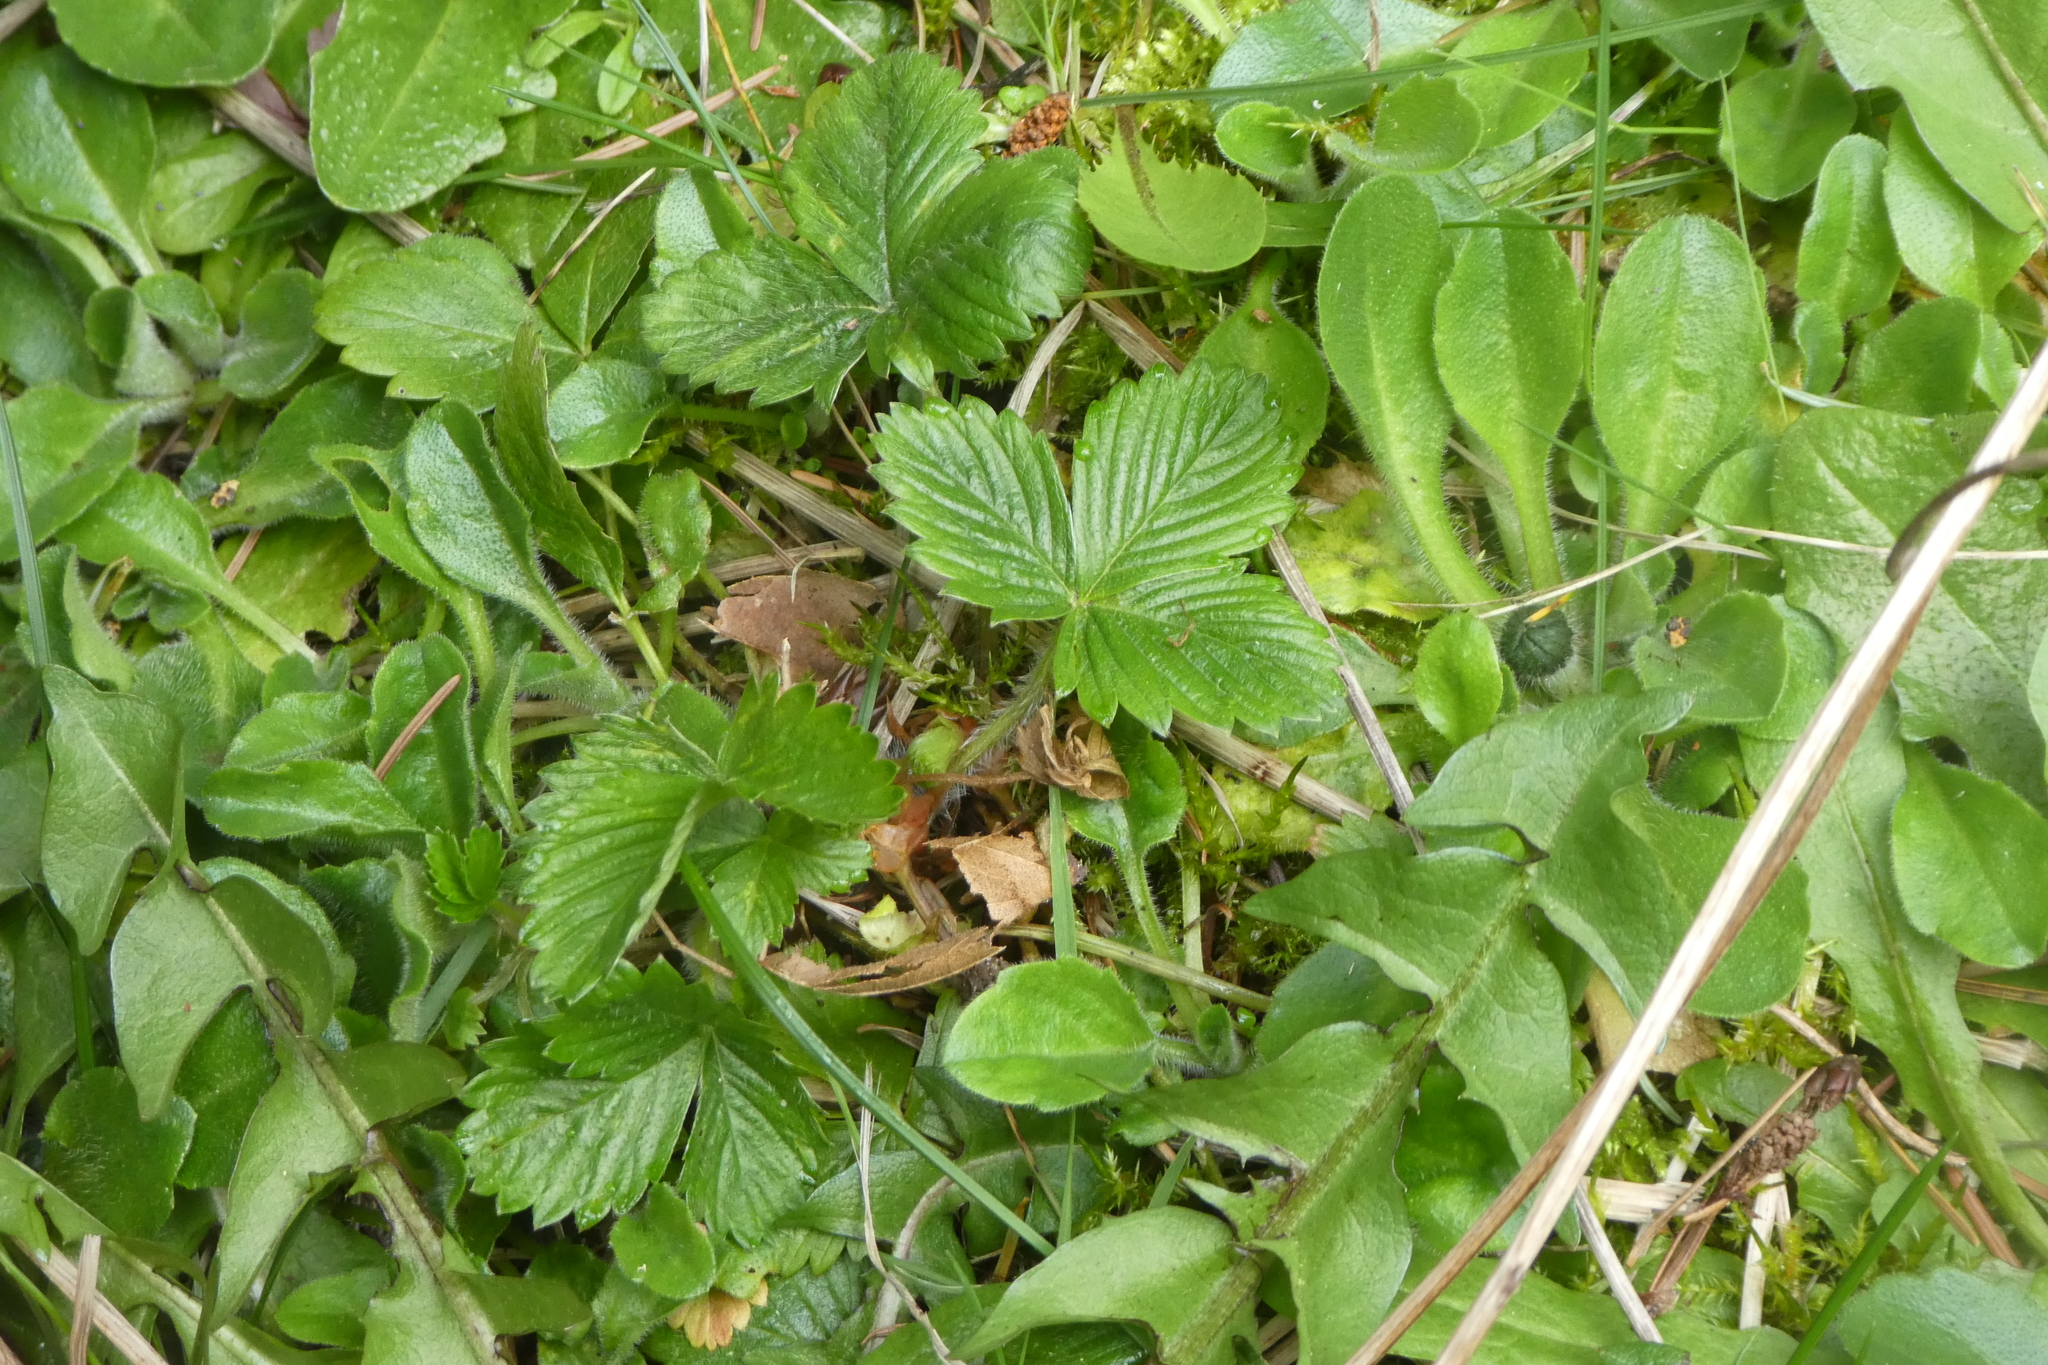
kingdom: Plantae
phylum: Tracheophyta
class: Magnoliopsida
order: Rosales
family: Rosaceae
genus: Fragaria
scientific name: Fragaria vesca
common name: Wild strawberry
